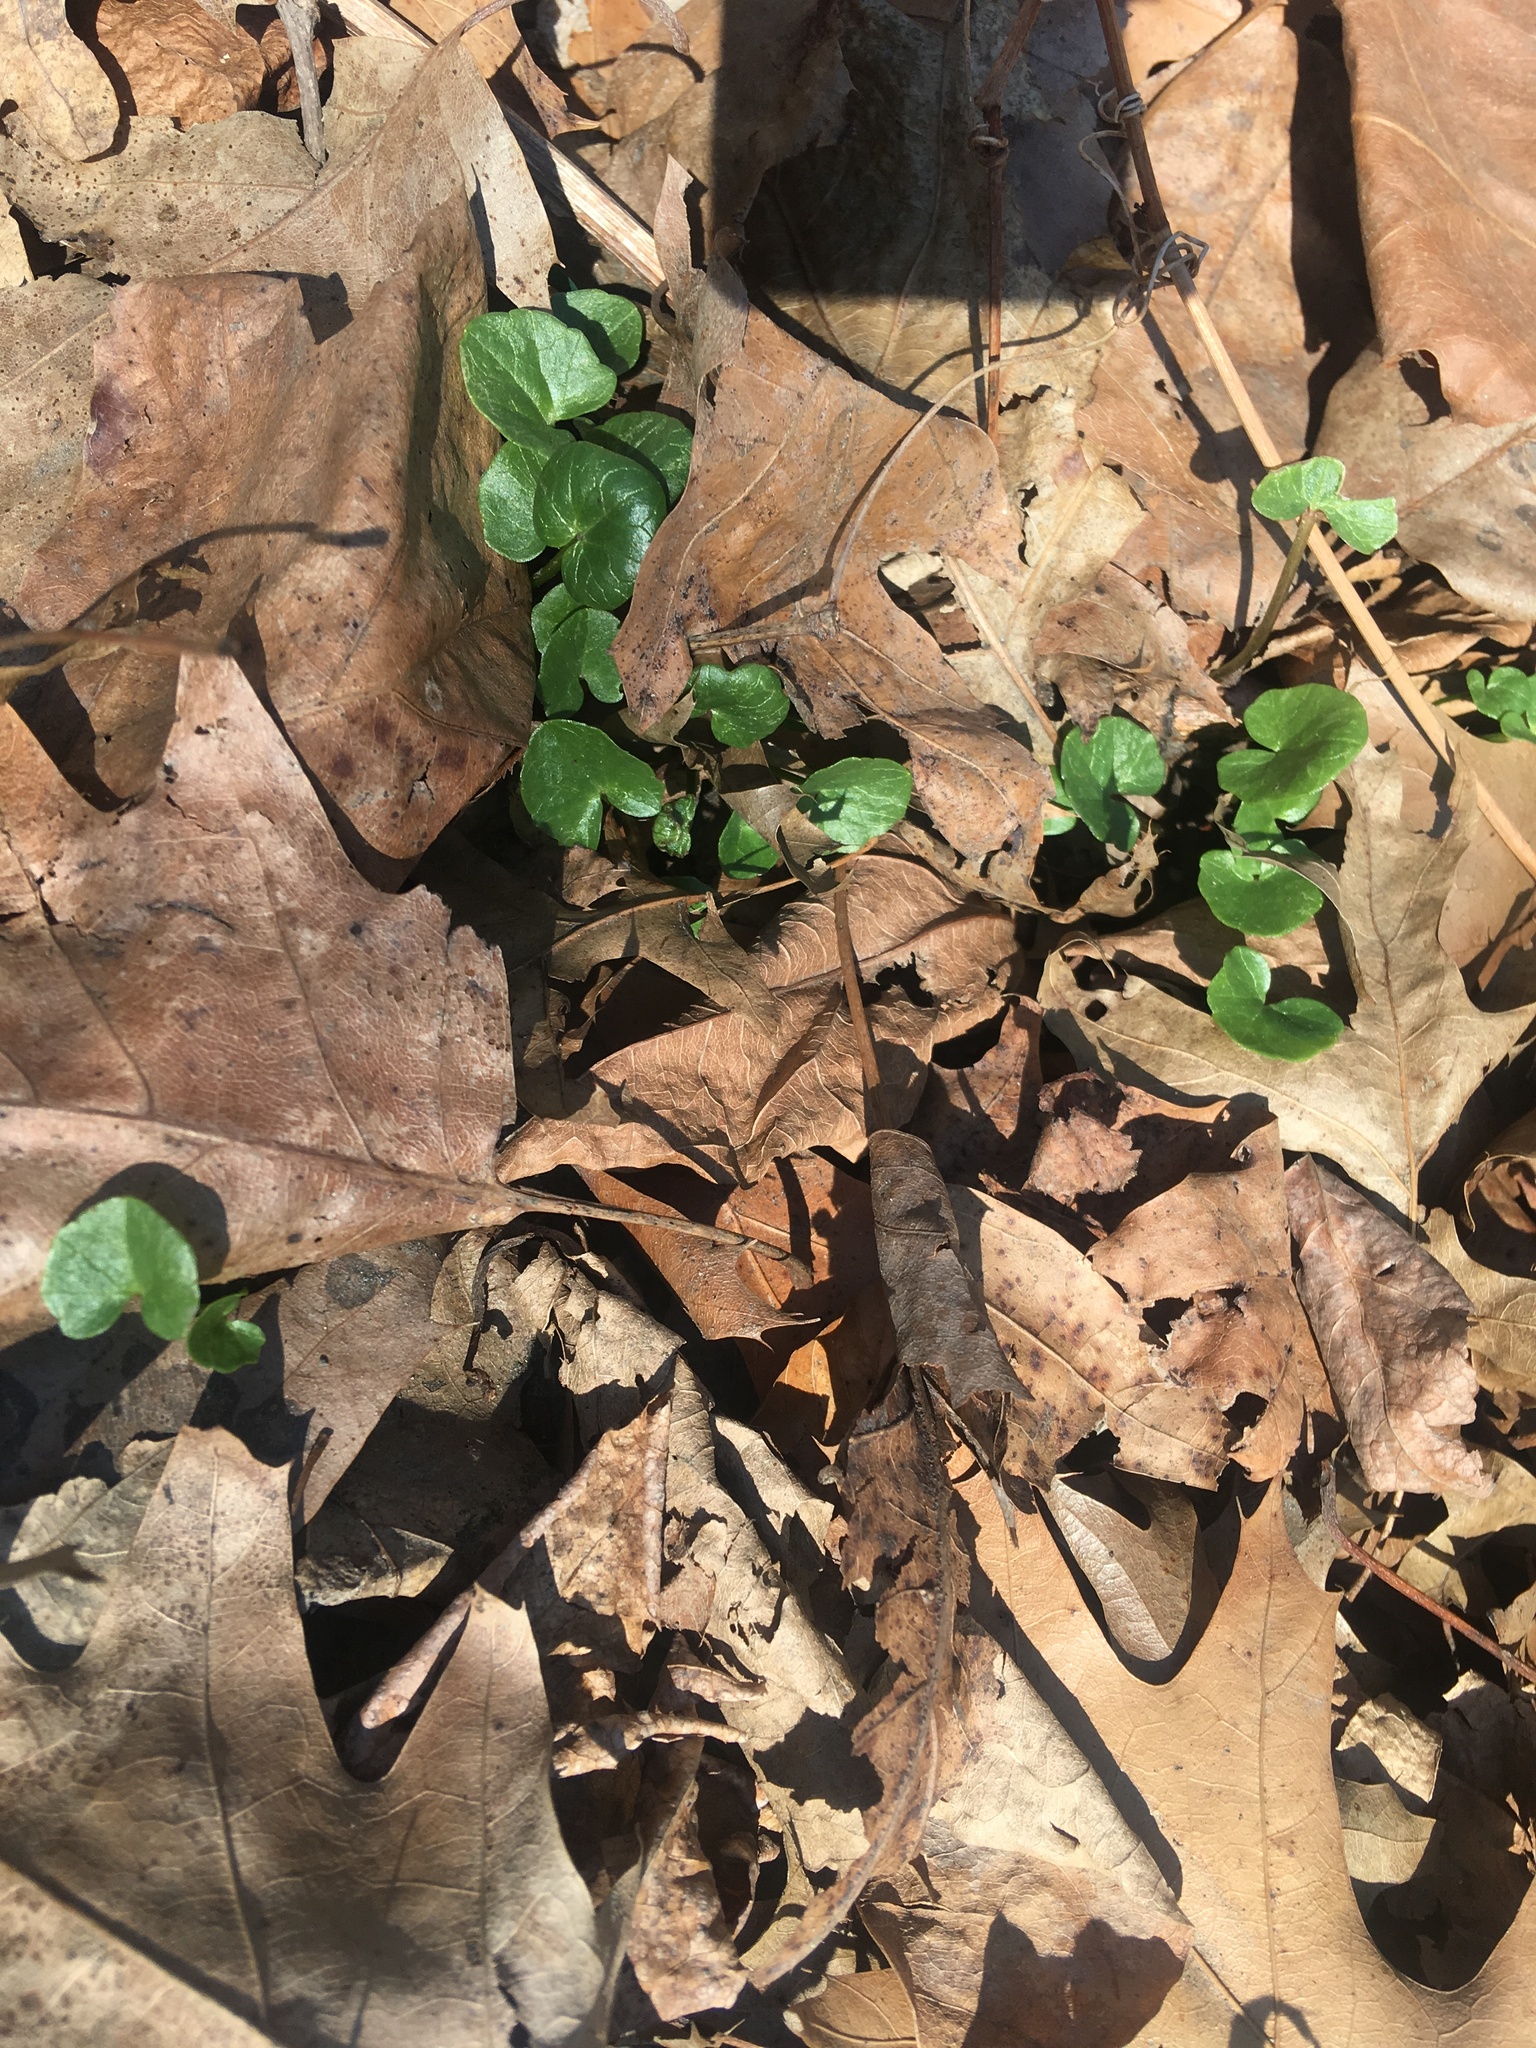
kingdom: Plantae
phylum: Tracheophyta
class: Magnoliopsida
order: Ranunculales
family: Ranunculaceae
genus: Ficaria
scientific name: Ficaria verna
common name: Lesser celandine
